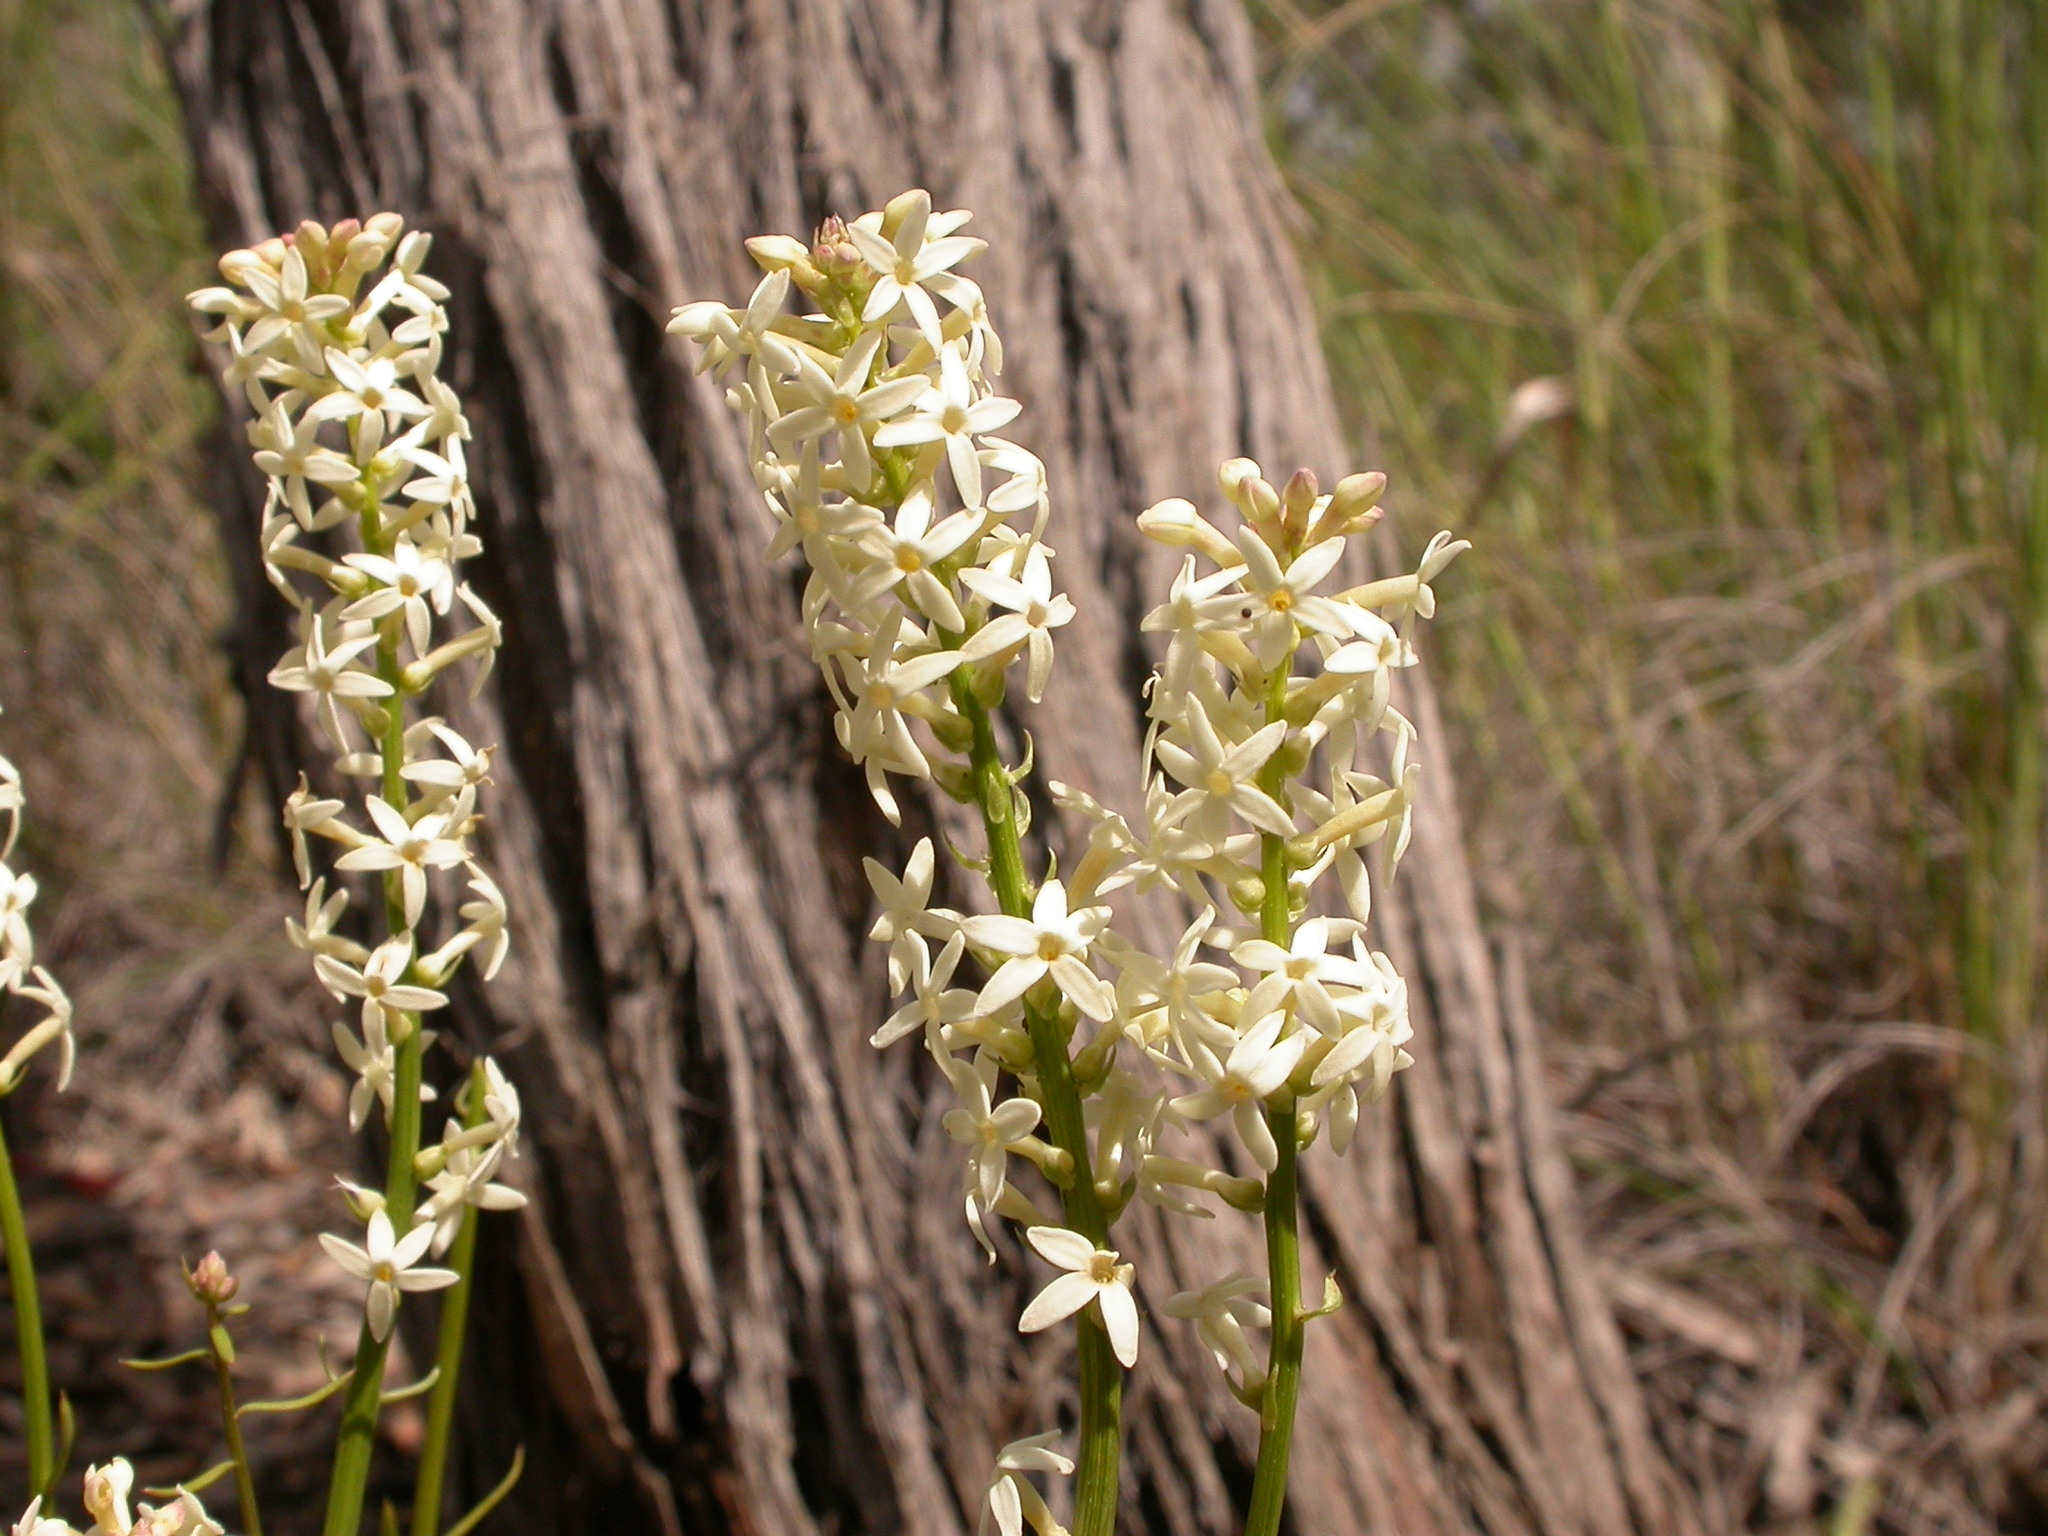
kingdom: Plantae
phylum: Tracheophyta
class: Magnoliopsida
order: Celastrales
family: Celastraceae
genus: Stackhousia
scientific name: Stackhousia monogyna
